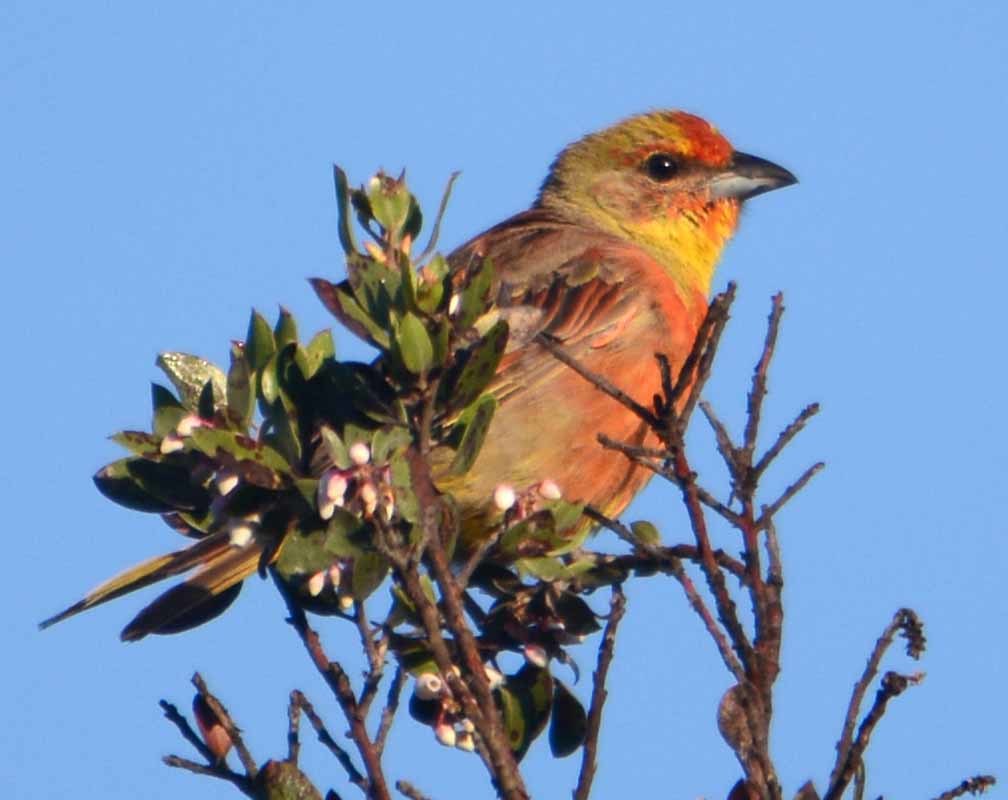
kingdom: Animalia
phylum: Chordata
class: Aves
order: Passeriformes
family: Cardinalidae
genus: Piranga
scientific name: Piranga flava
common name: Red tanager
